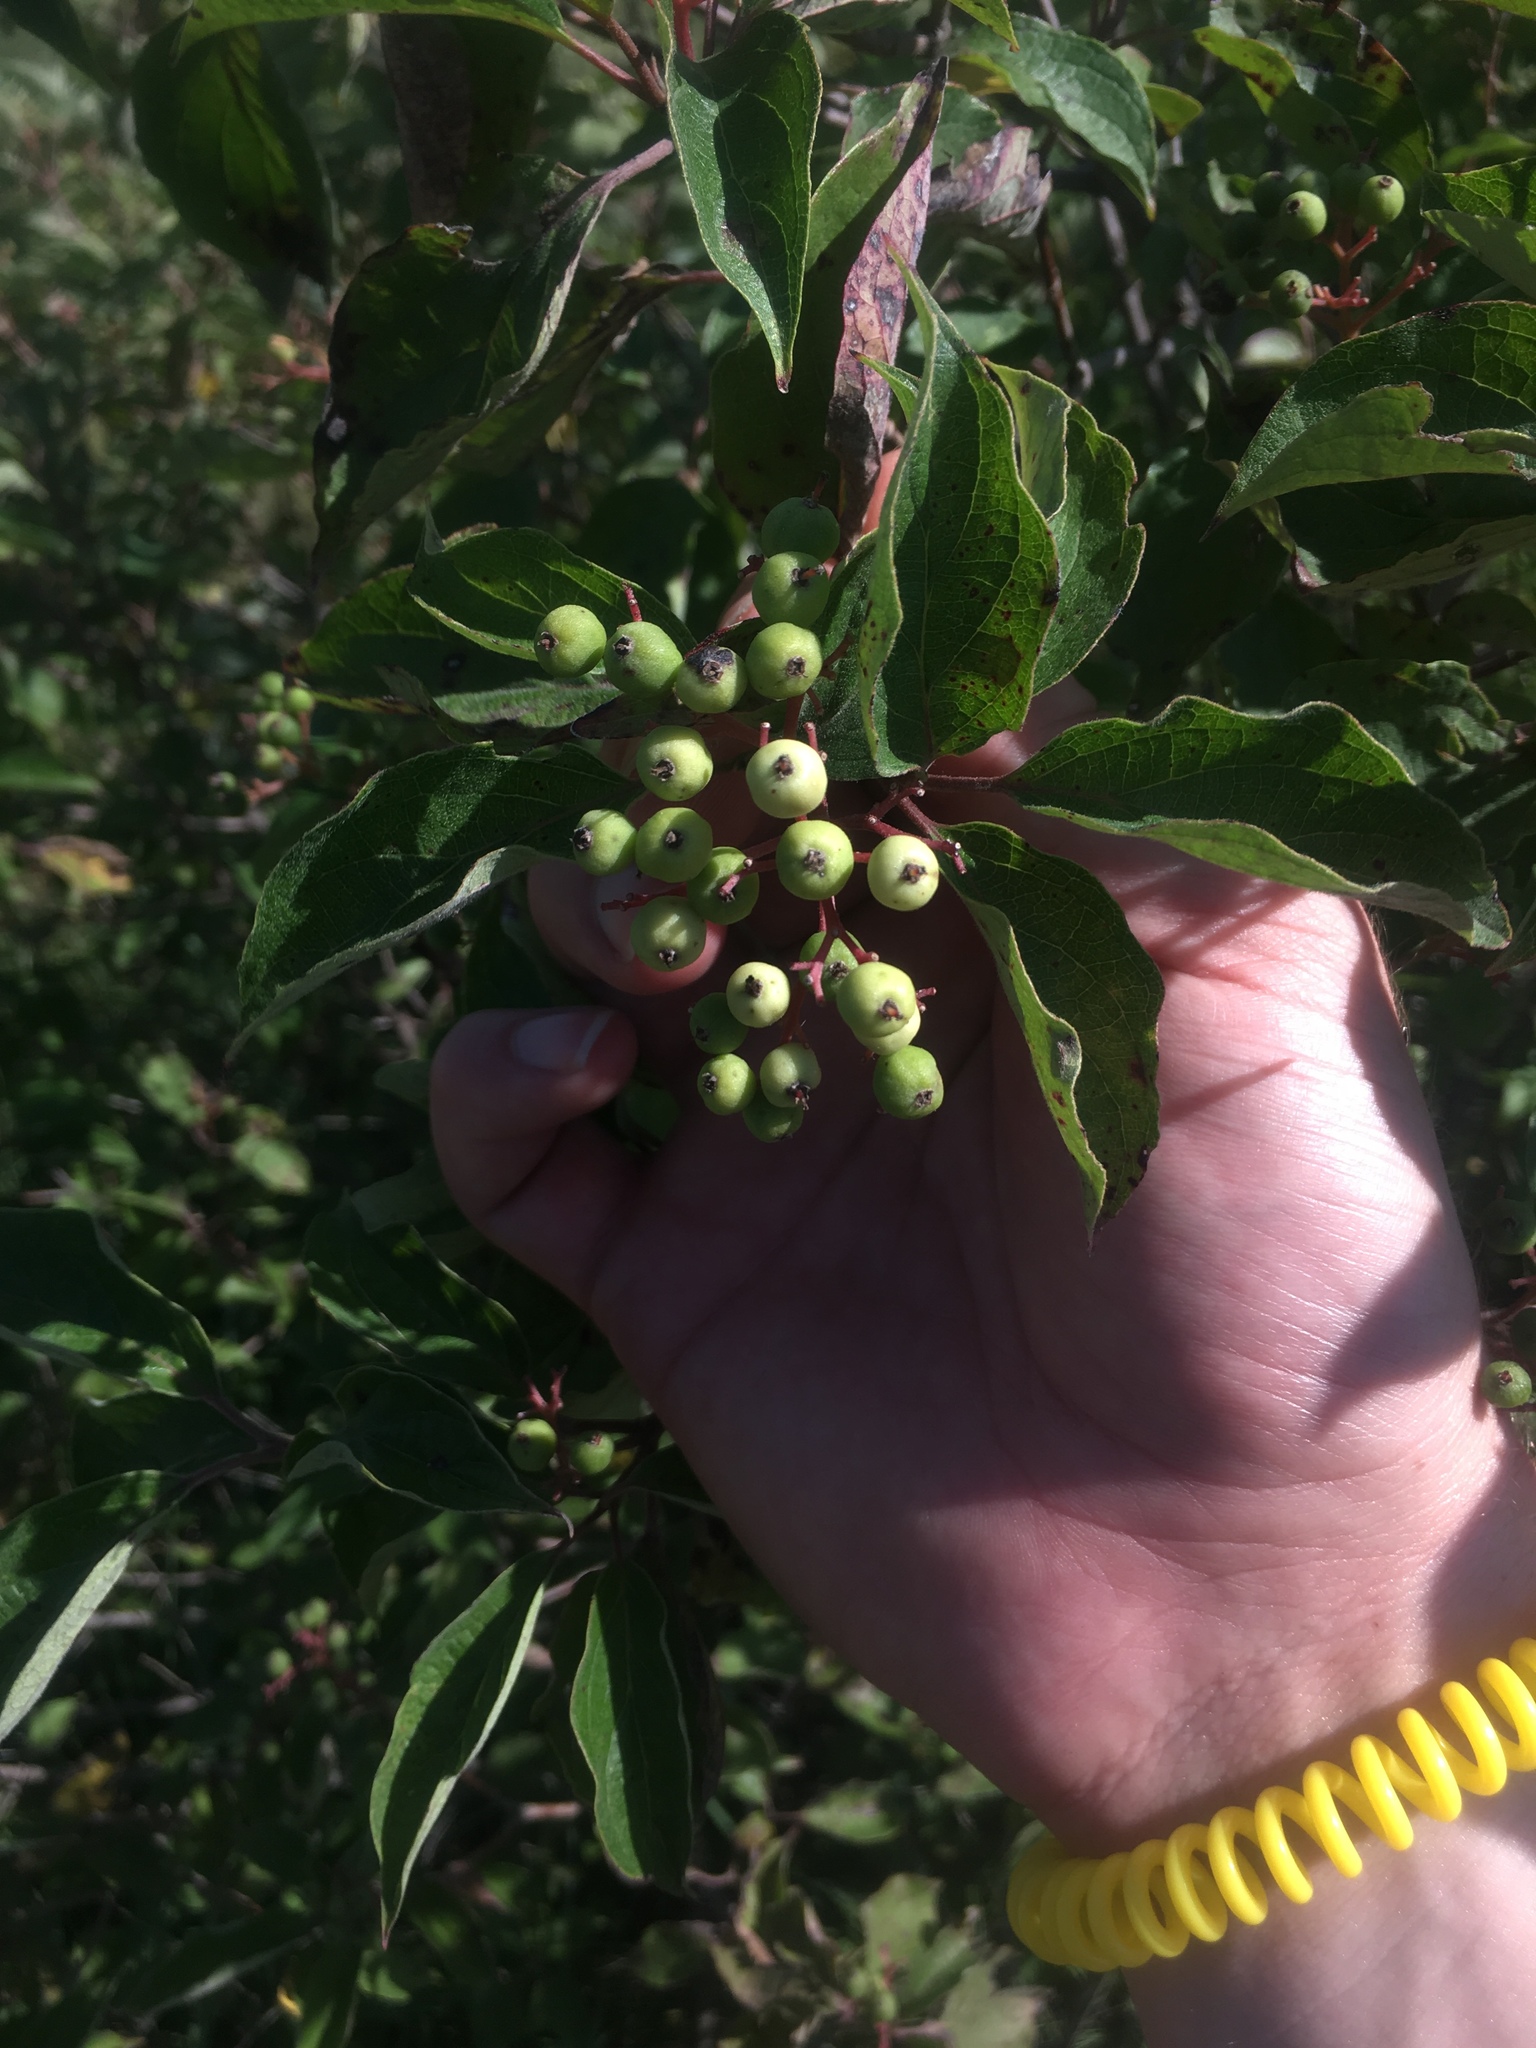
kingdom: Plantae
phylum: Tracheophyta
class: Magnoliopsida
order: Cornales
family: Cornaceae
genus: Cornus
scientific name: Cornus drummondii
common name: Rough-leaf dogwood
